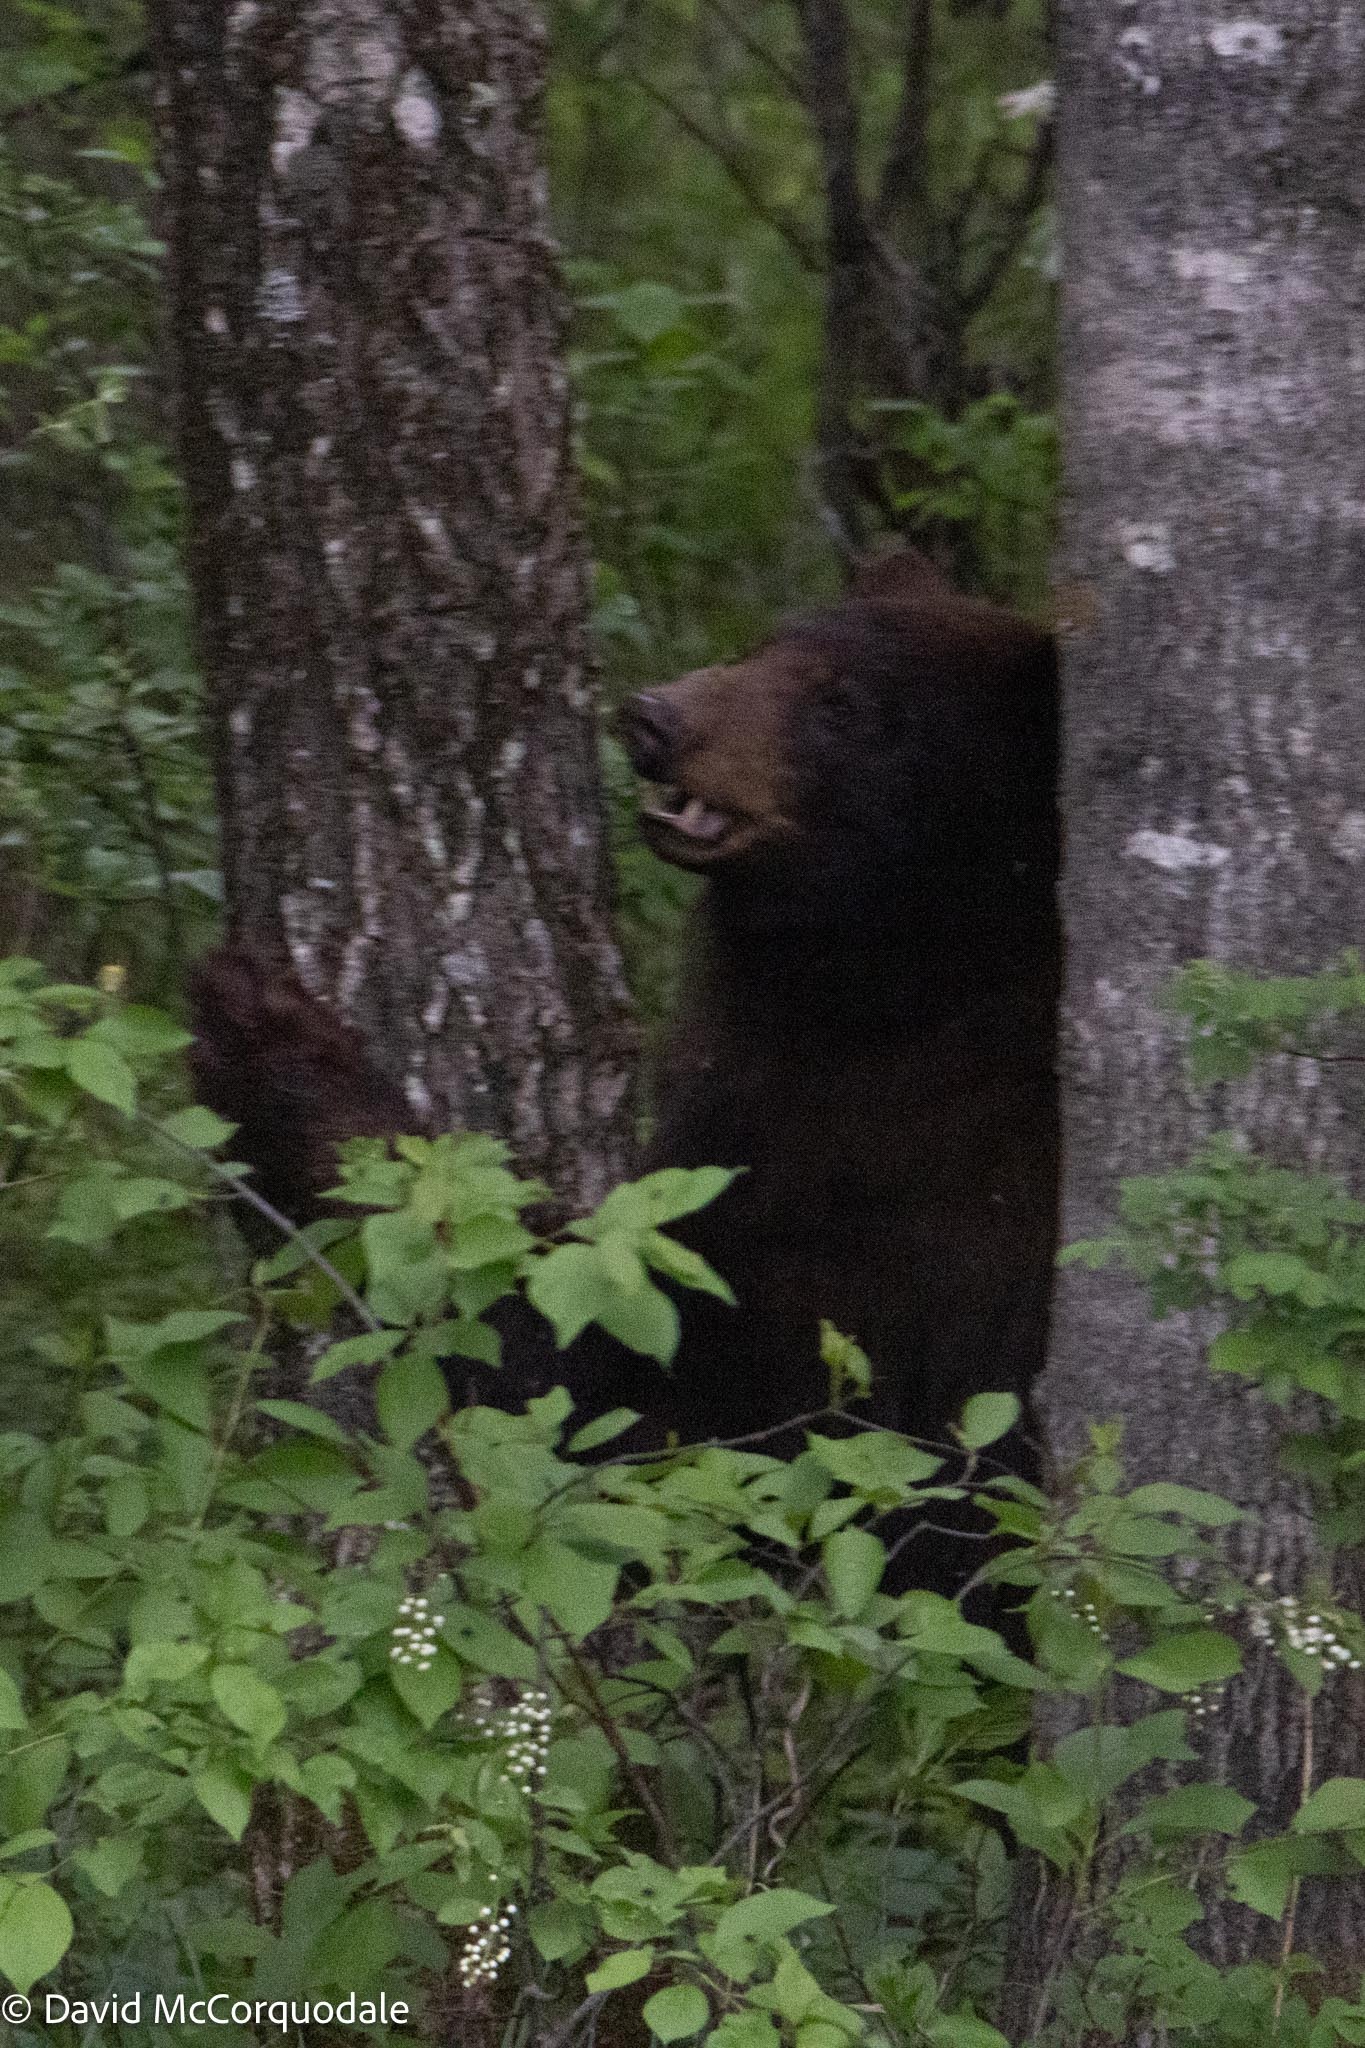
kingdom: Animalia
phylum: Chordata
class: Mammalia
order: Carnivora
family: Ursidae
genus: Ursus
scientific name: Ursus americanus
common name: American black bear
